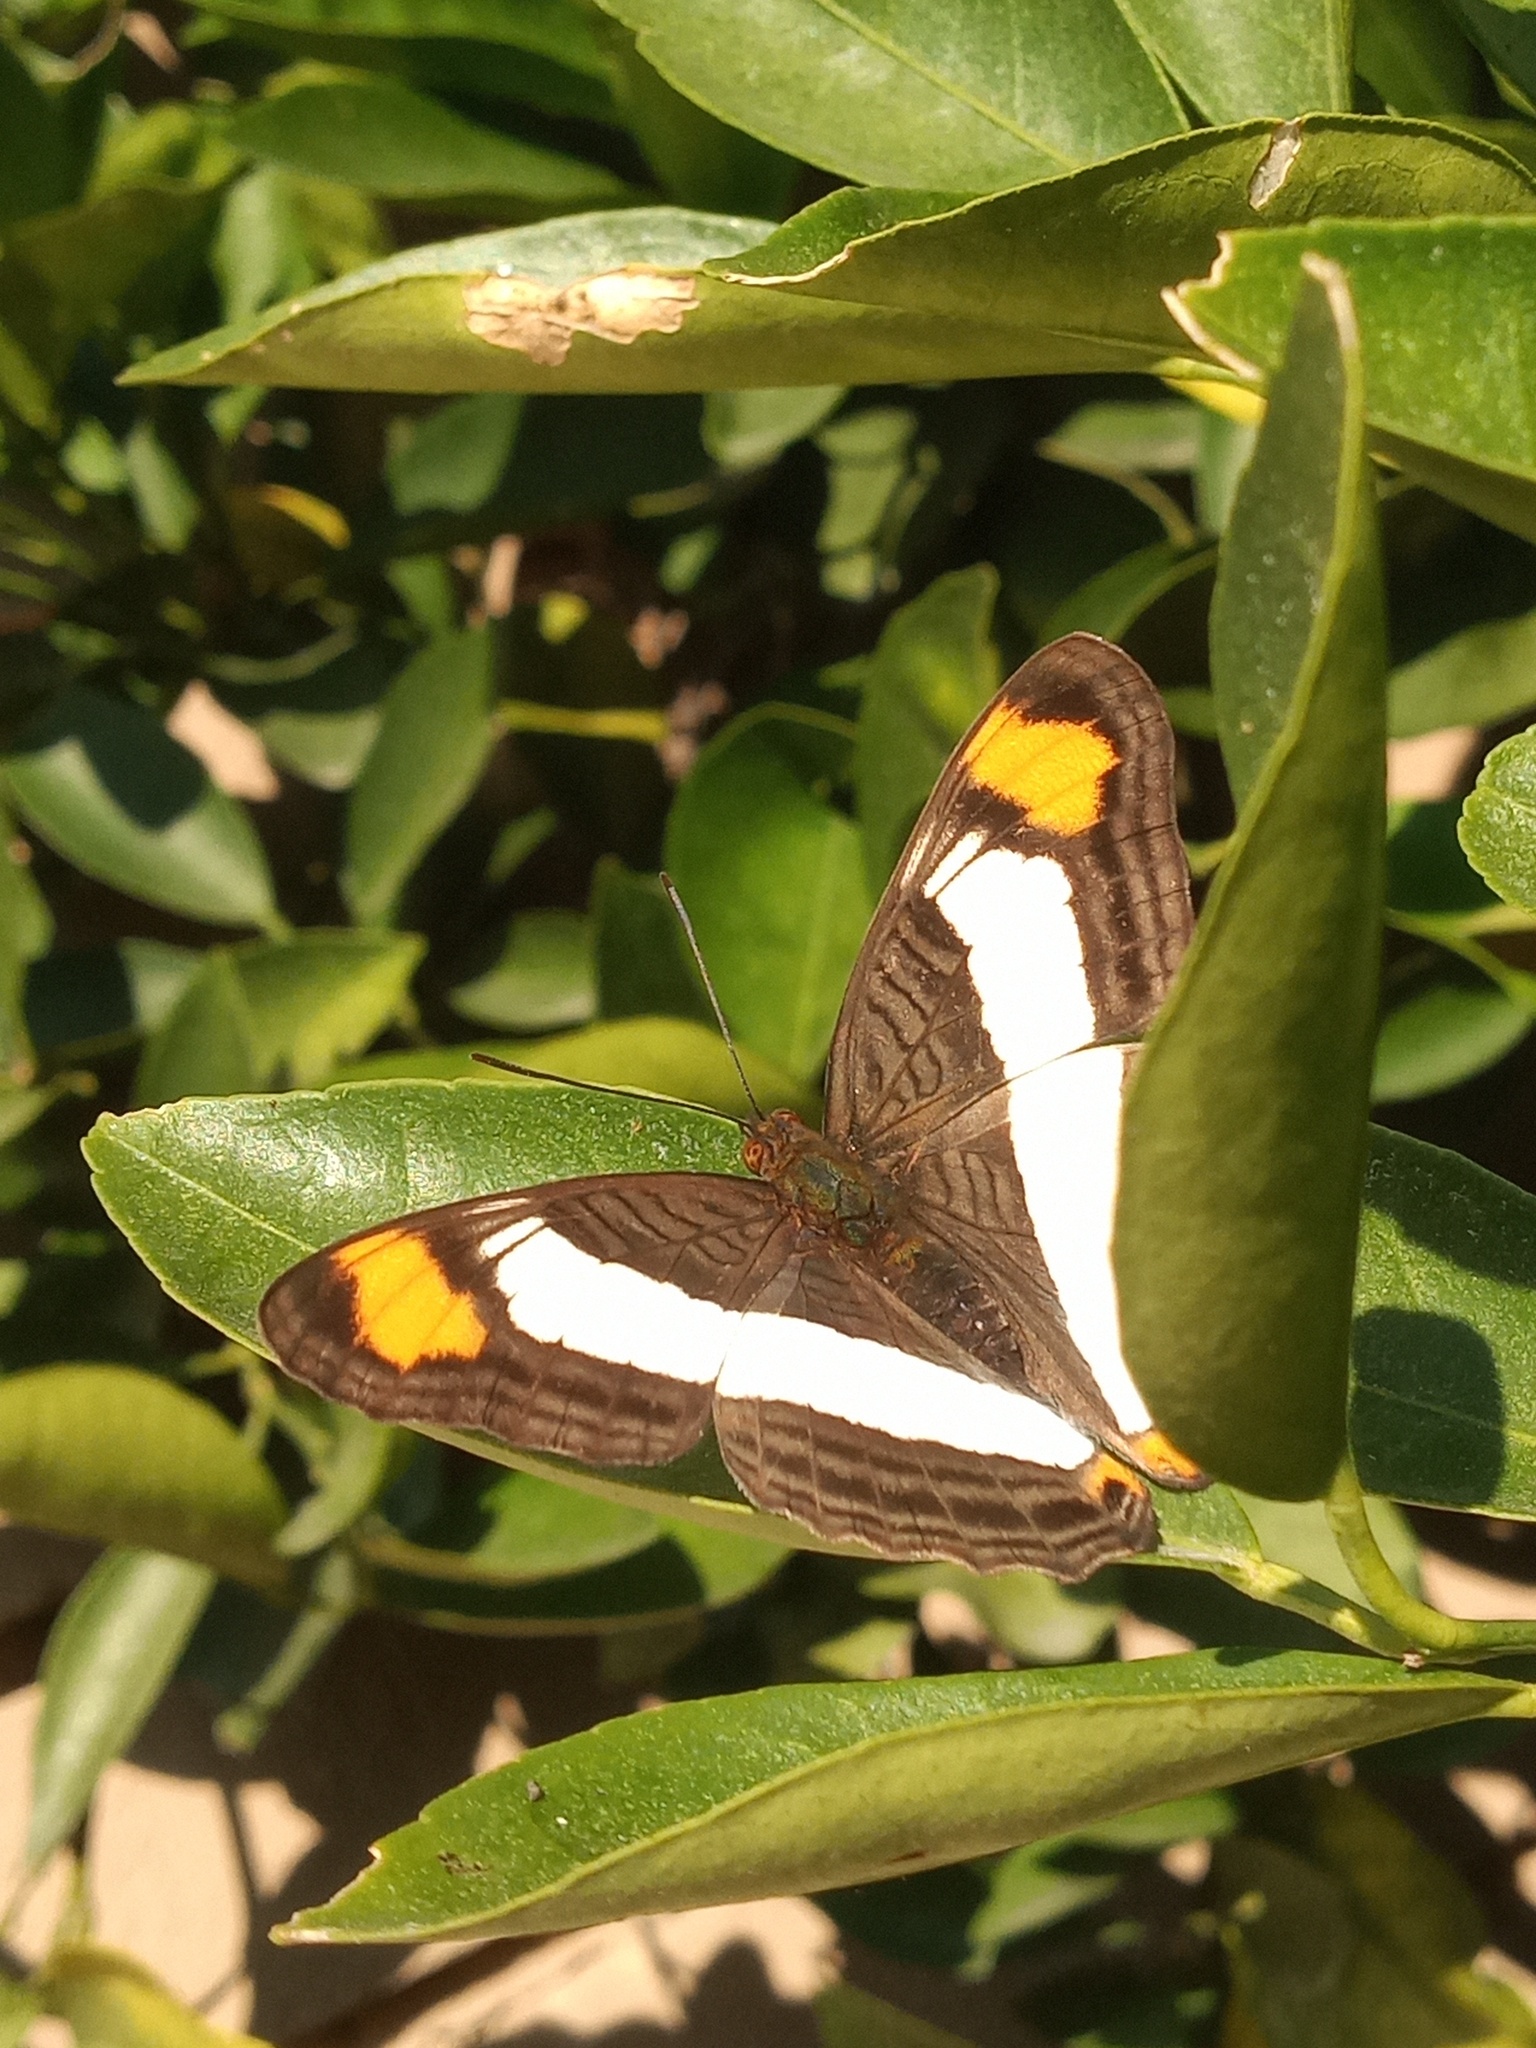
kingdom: Animalia
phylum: Arthropoda
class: Insecta
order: Lepidoptera
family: Nymphalidae
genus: Limenitis
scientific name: Limenitis Adelpha basiloides
